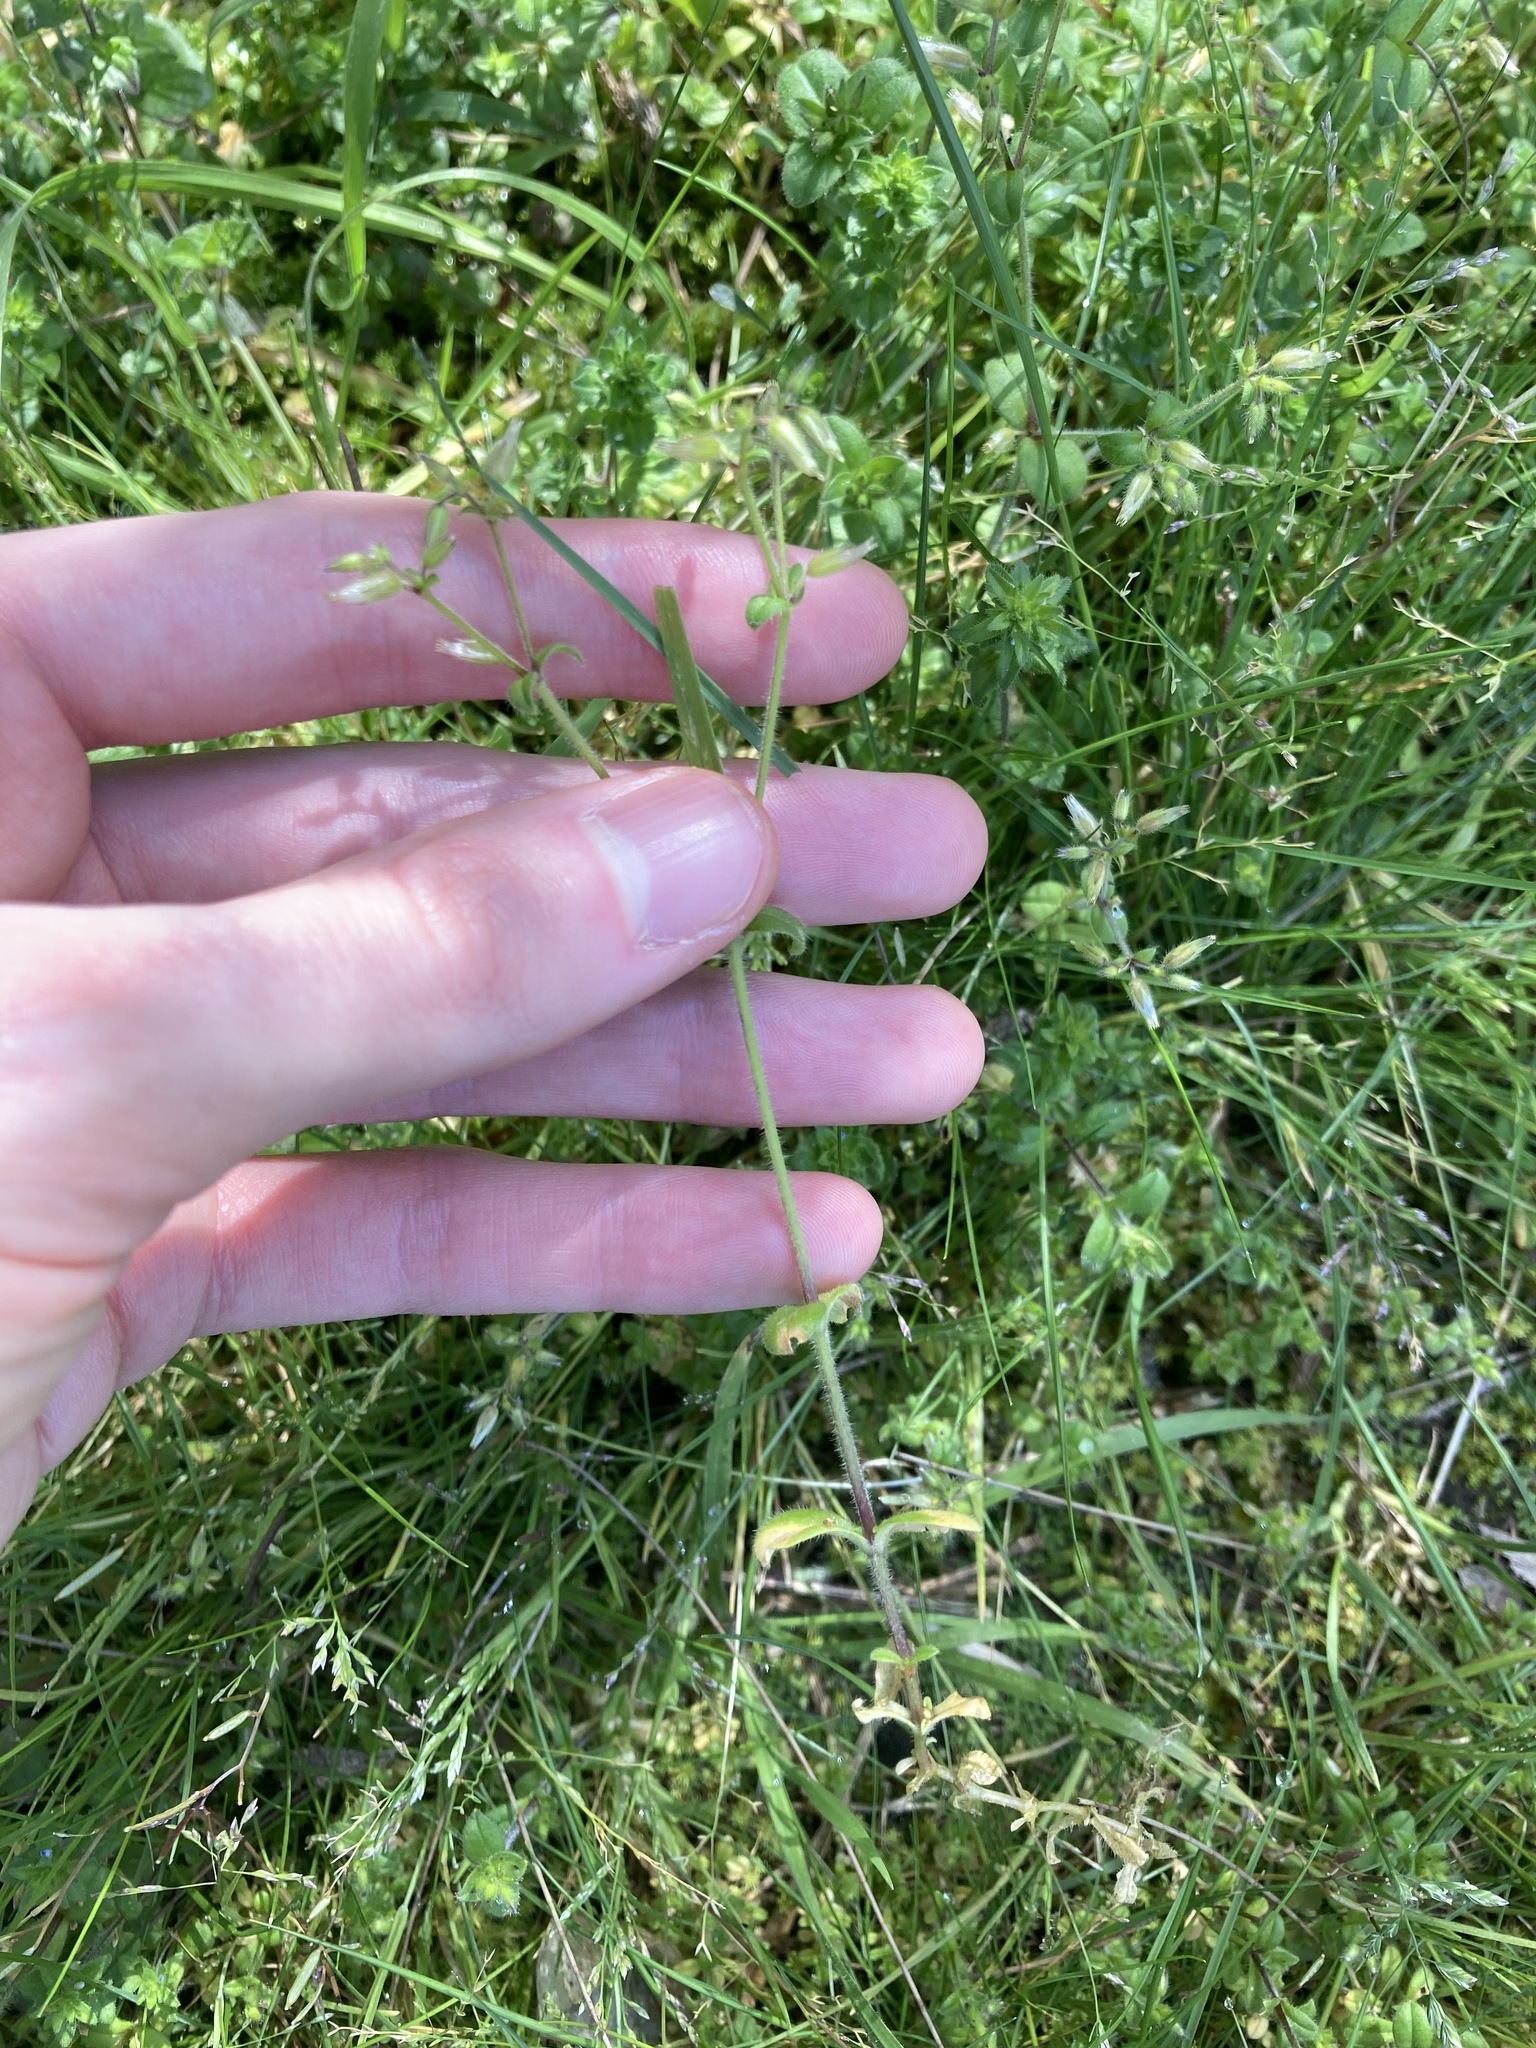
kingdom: Plantae
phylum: Tracheophyta
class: Magnoliopsida
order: Caryophyllales
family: Caryophyllaceae
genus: Cerastium
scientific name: Cerastium glomeratum
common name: Sticky chickweed
